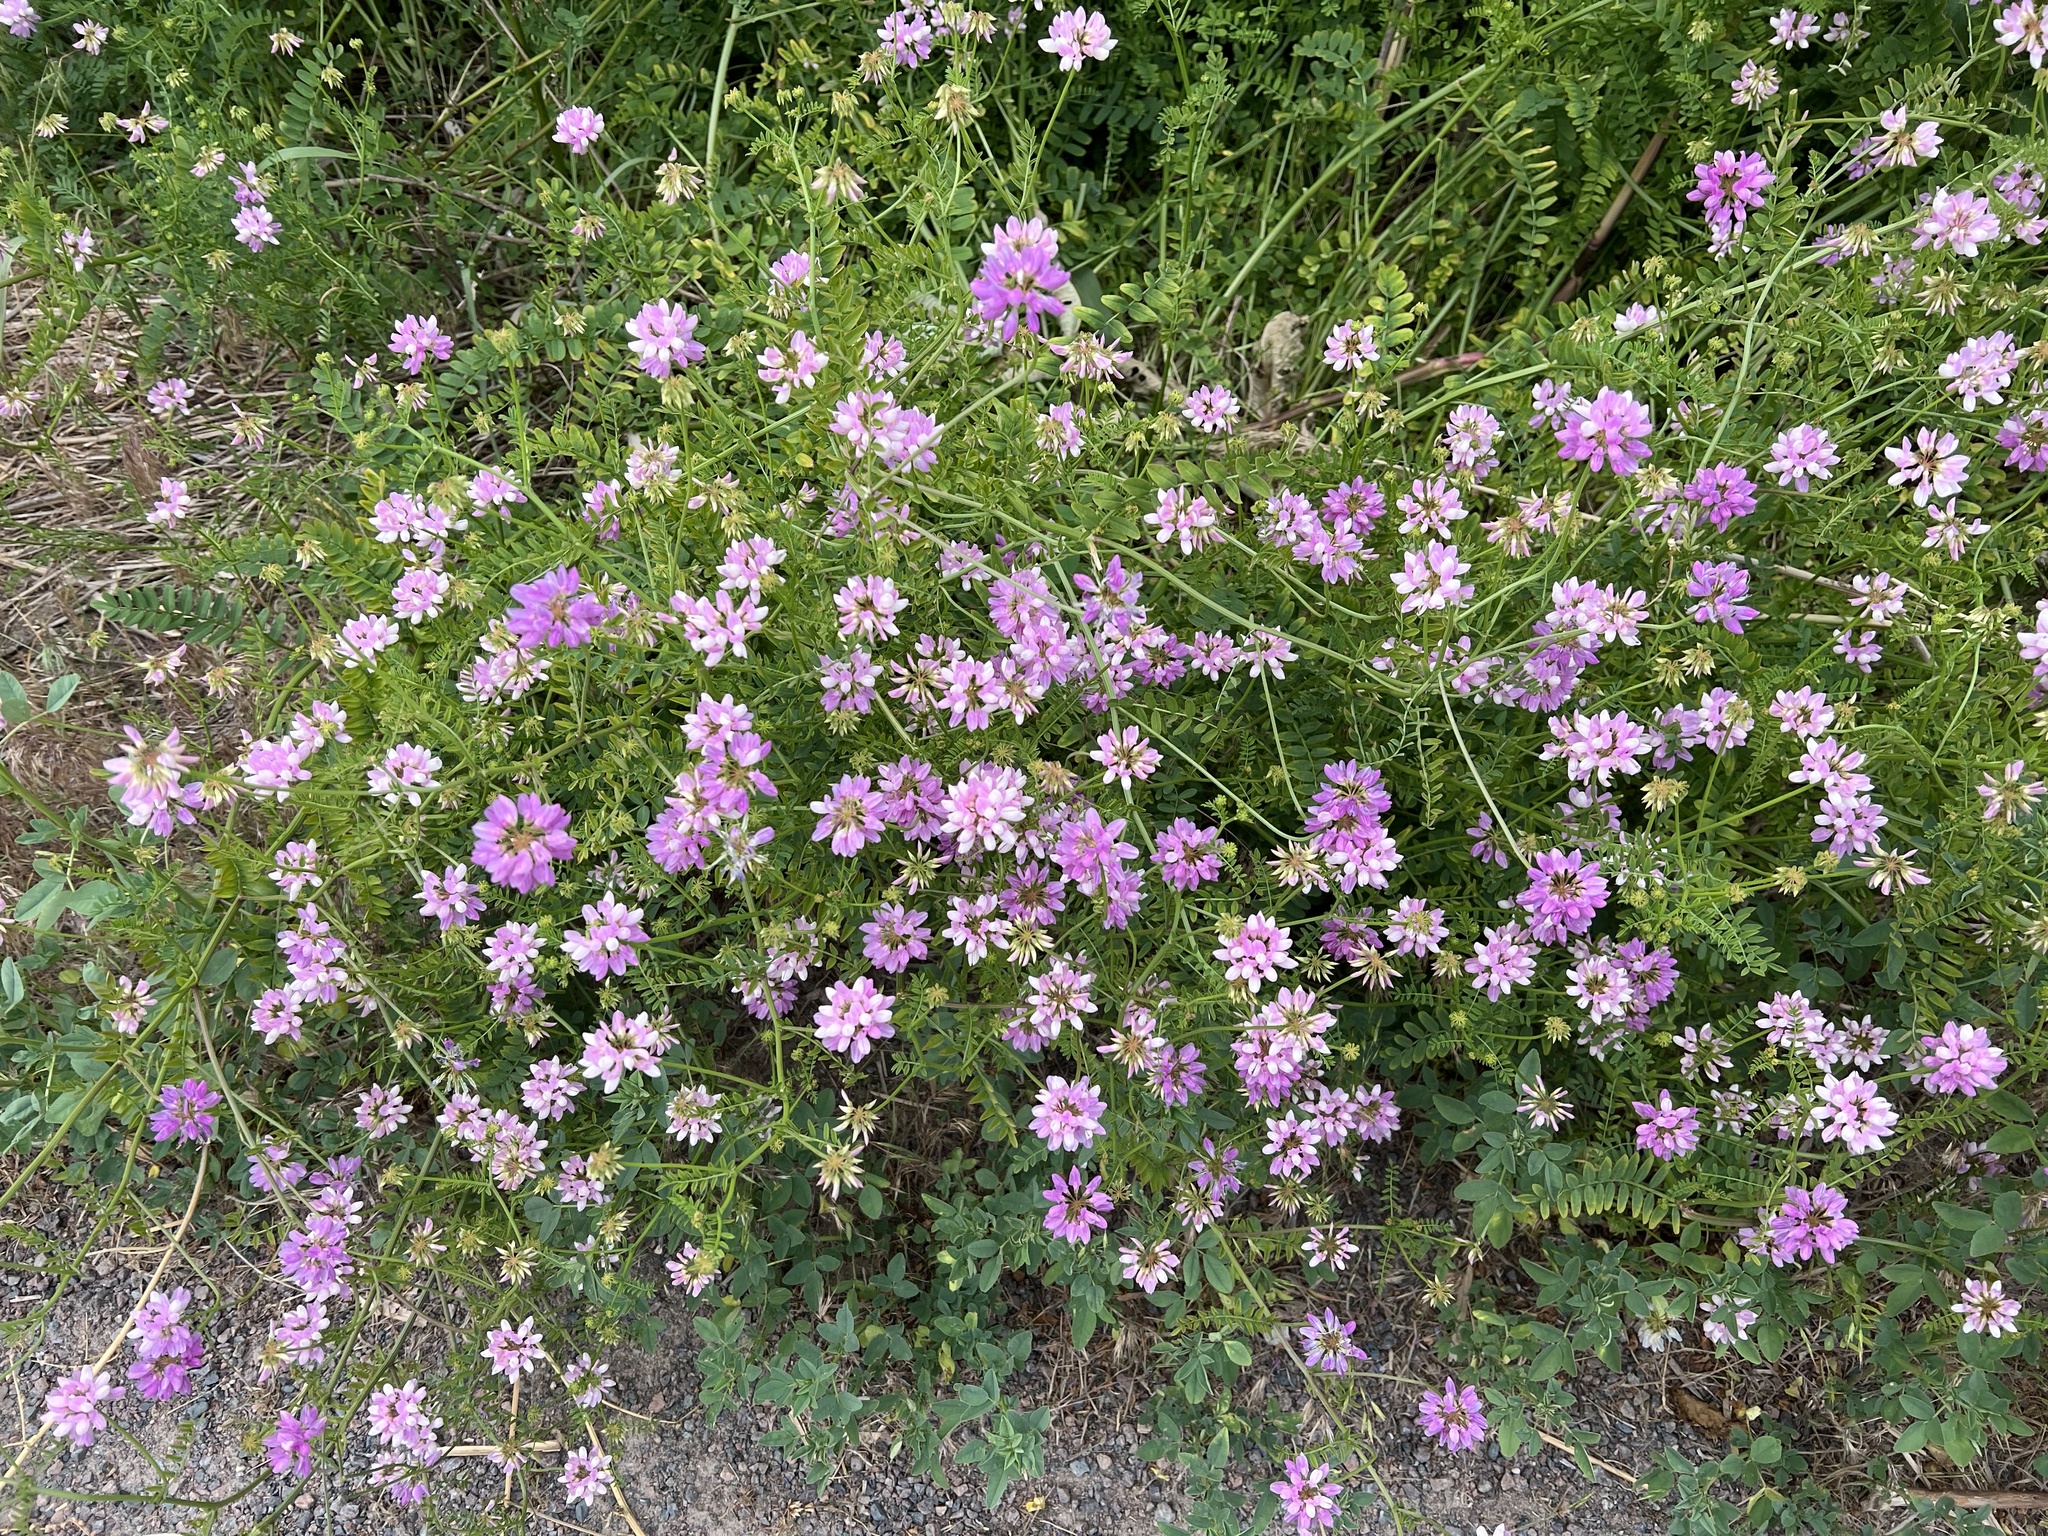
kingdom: Plantae
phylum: Tracheophyta
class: Magnoliopsida
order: Fabales
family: Fabaceae
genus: Coronilla
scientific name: Coronilla varia
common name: Crownvetch
